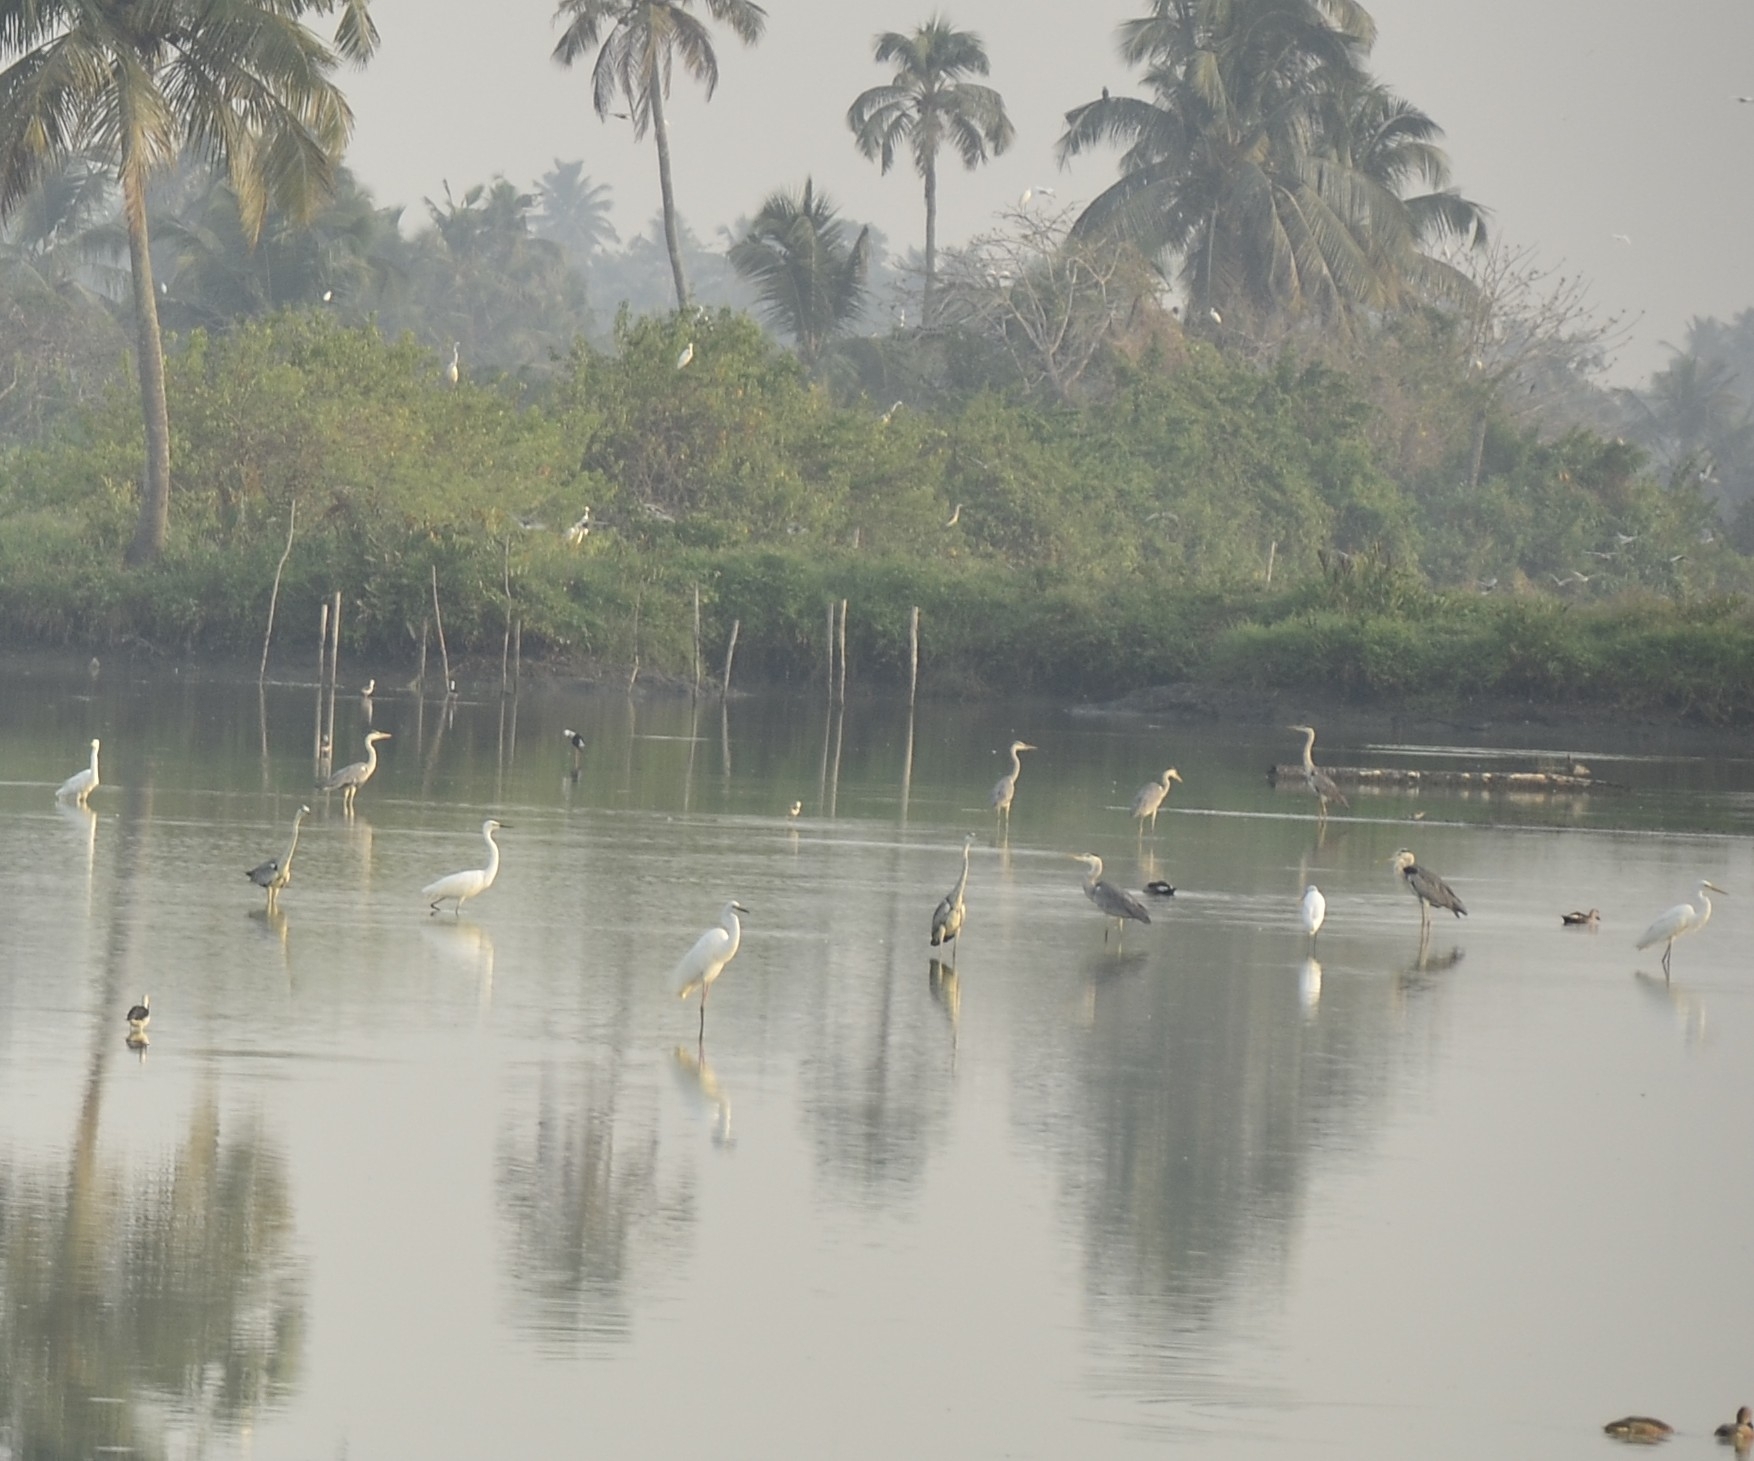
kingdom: Animalia
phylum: Chordata
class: Aves
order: Pelecaniformes
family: Ardeidae
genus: Ardea
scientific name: Ardea cinerea
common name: Grey heron
